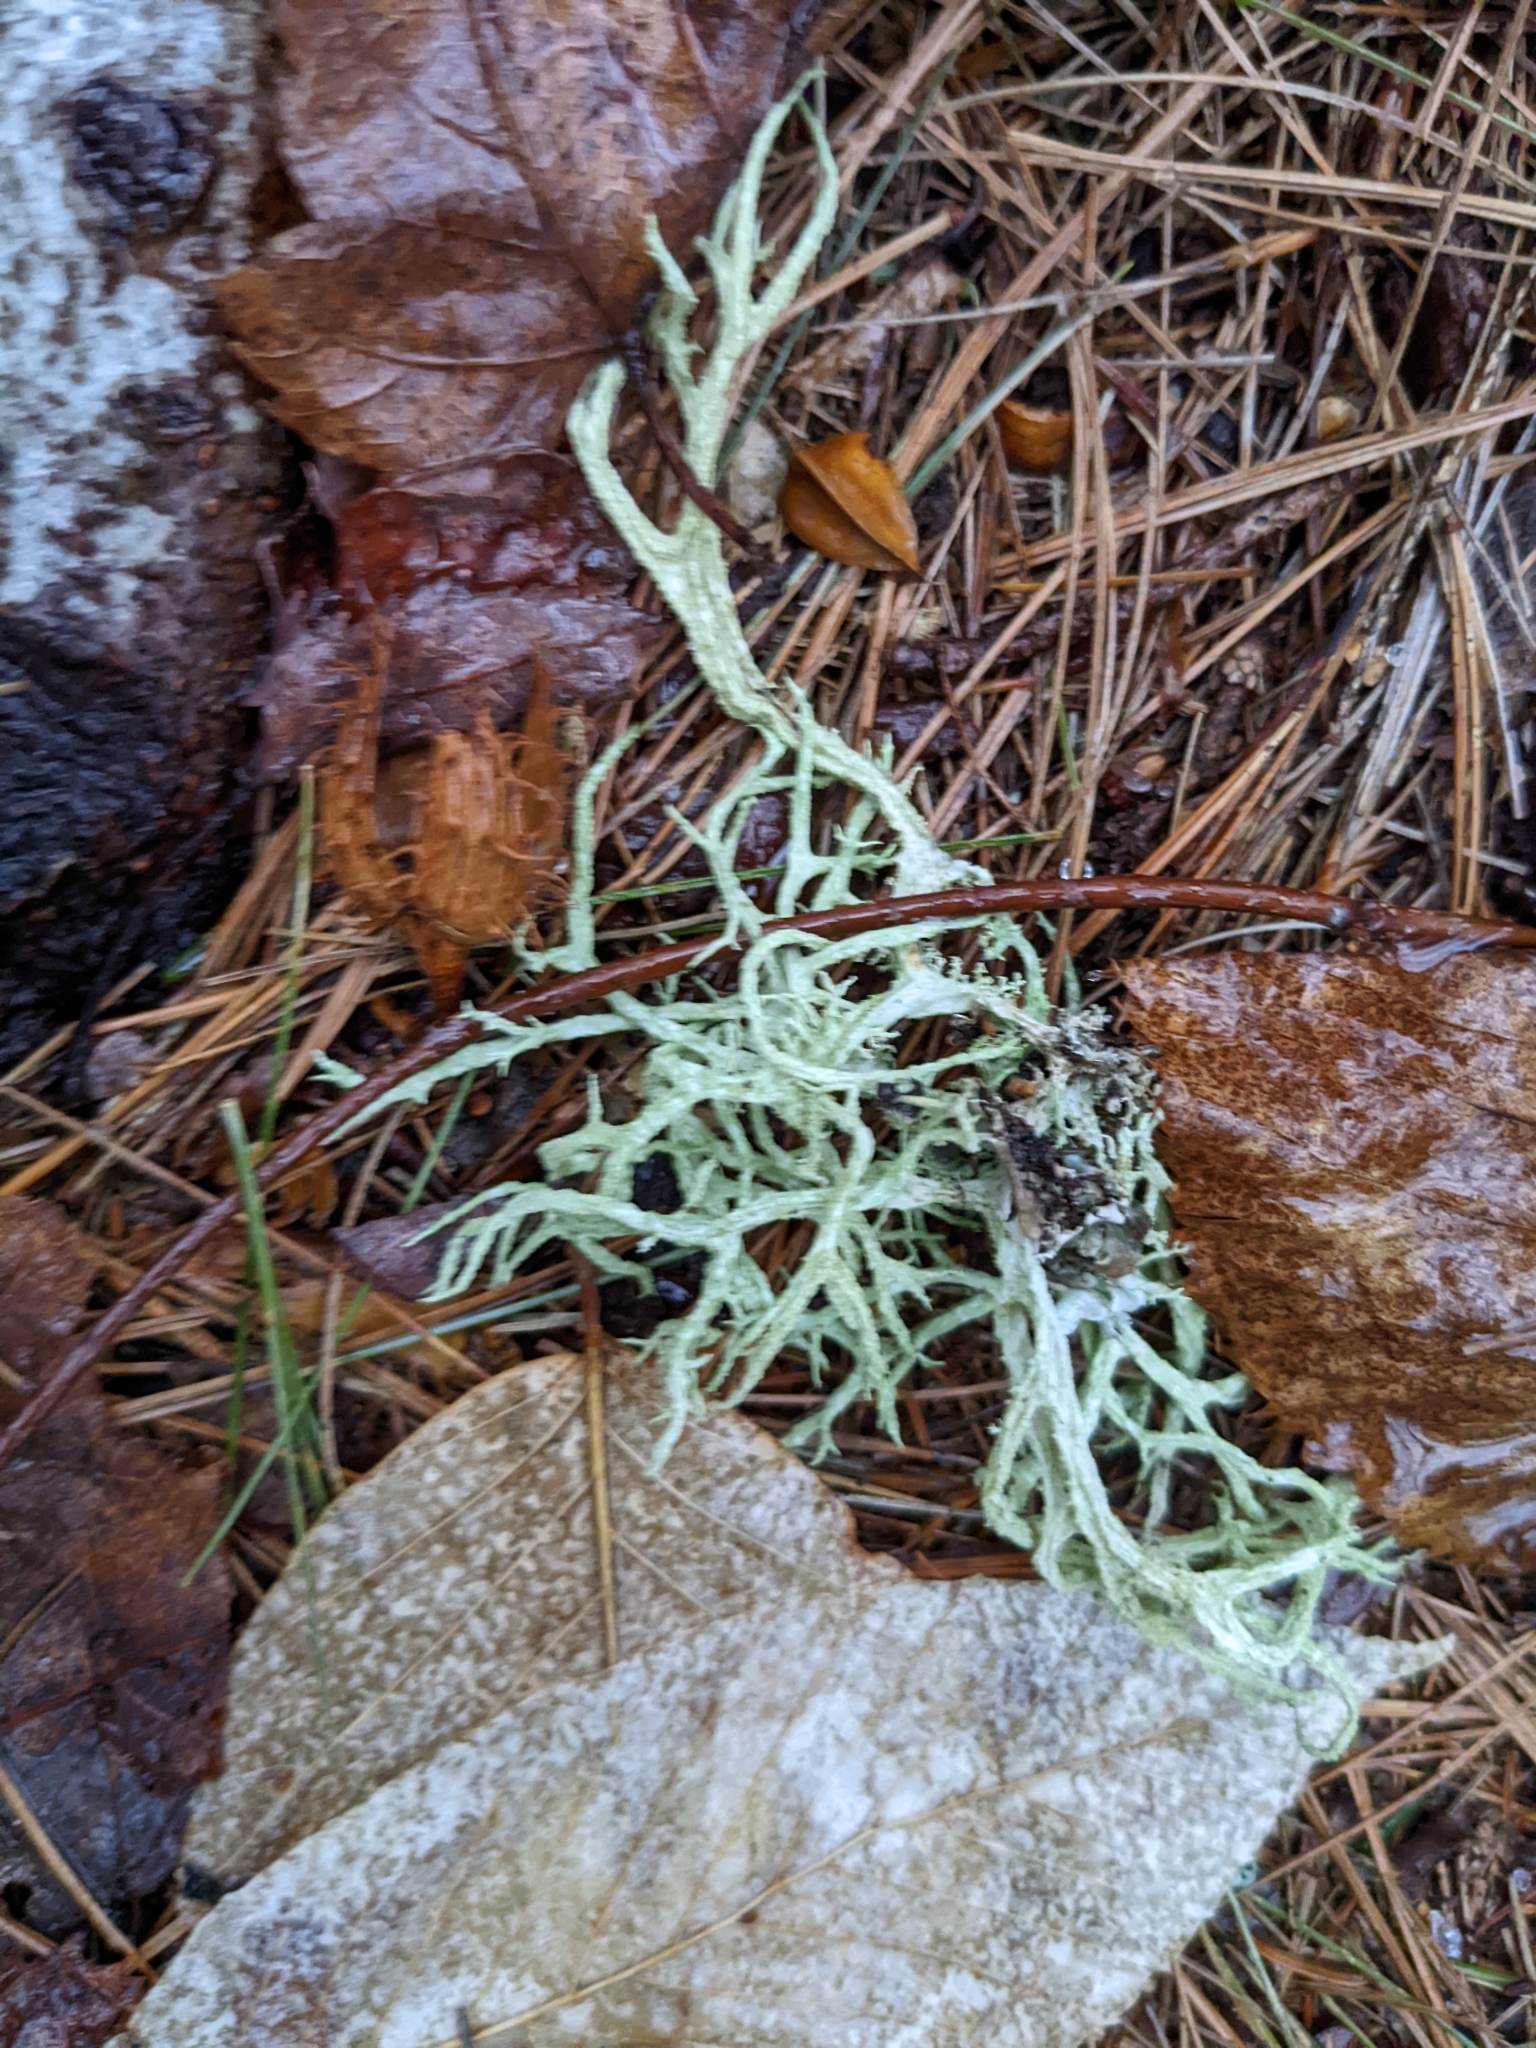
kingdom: Fungi
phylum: Ascomycota
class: Lecanoromycetes
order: Lecanorales
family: Parmeliaceae
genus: Evernia
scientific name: Evernia mesomorpha
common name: Boreal oak moss lichen
